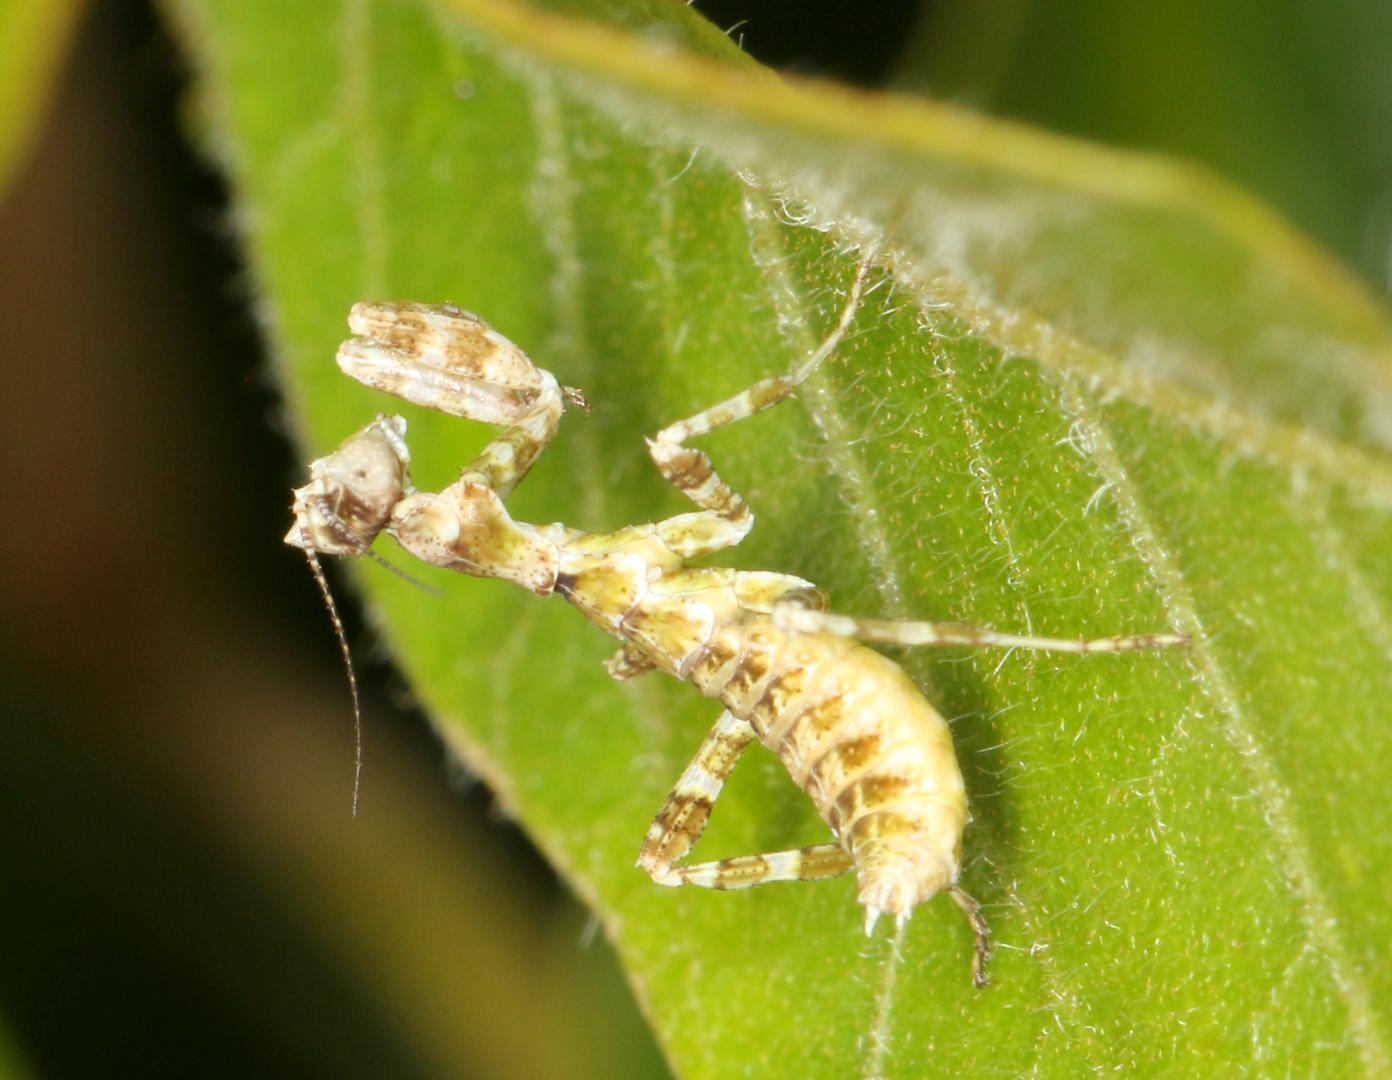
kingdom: Animalia
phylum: Arthropoda
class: Insecta
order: Mantodea
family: Galinthiadidae
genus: Harpagomantis
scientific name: Harpagomantis tricolor
